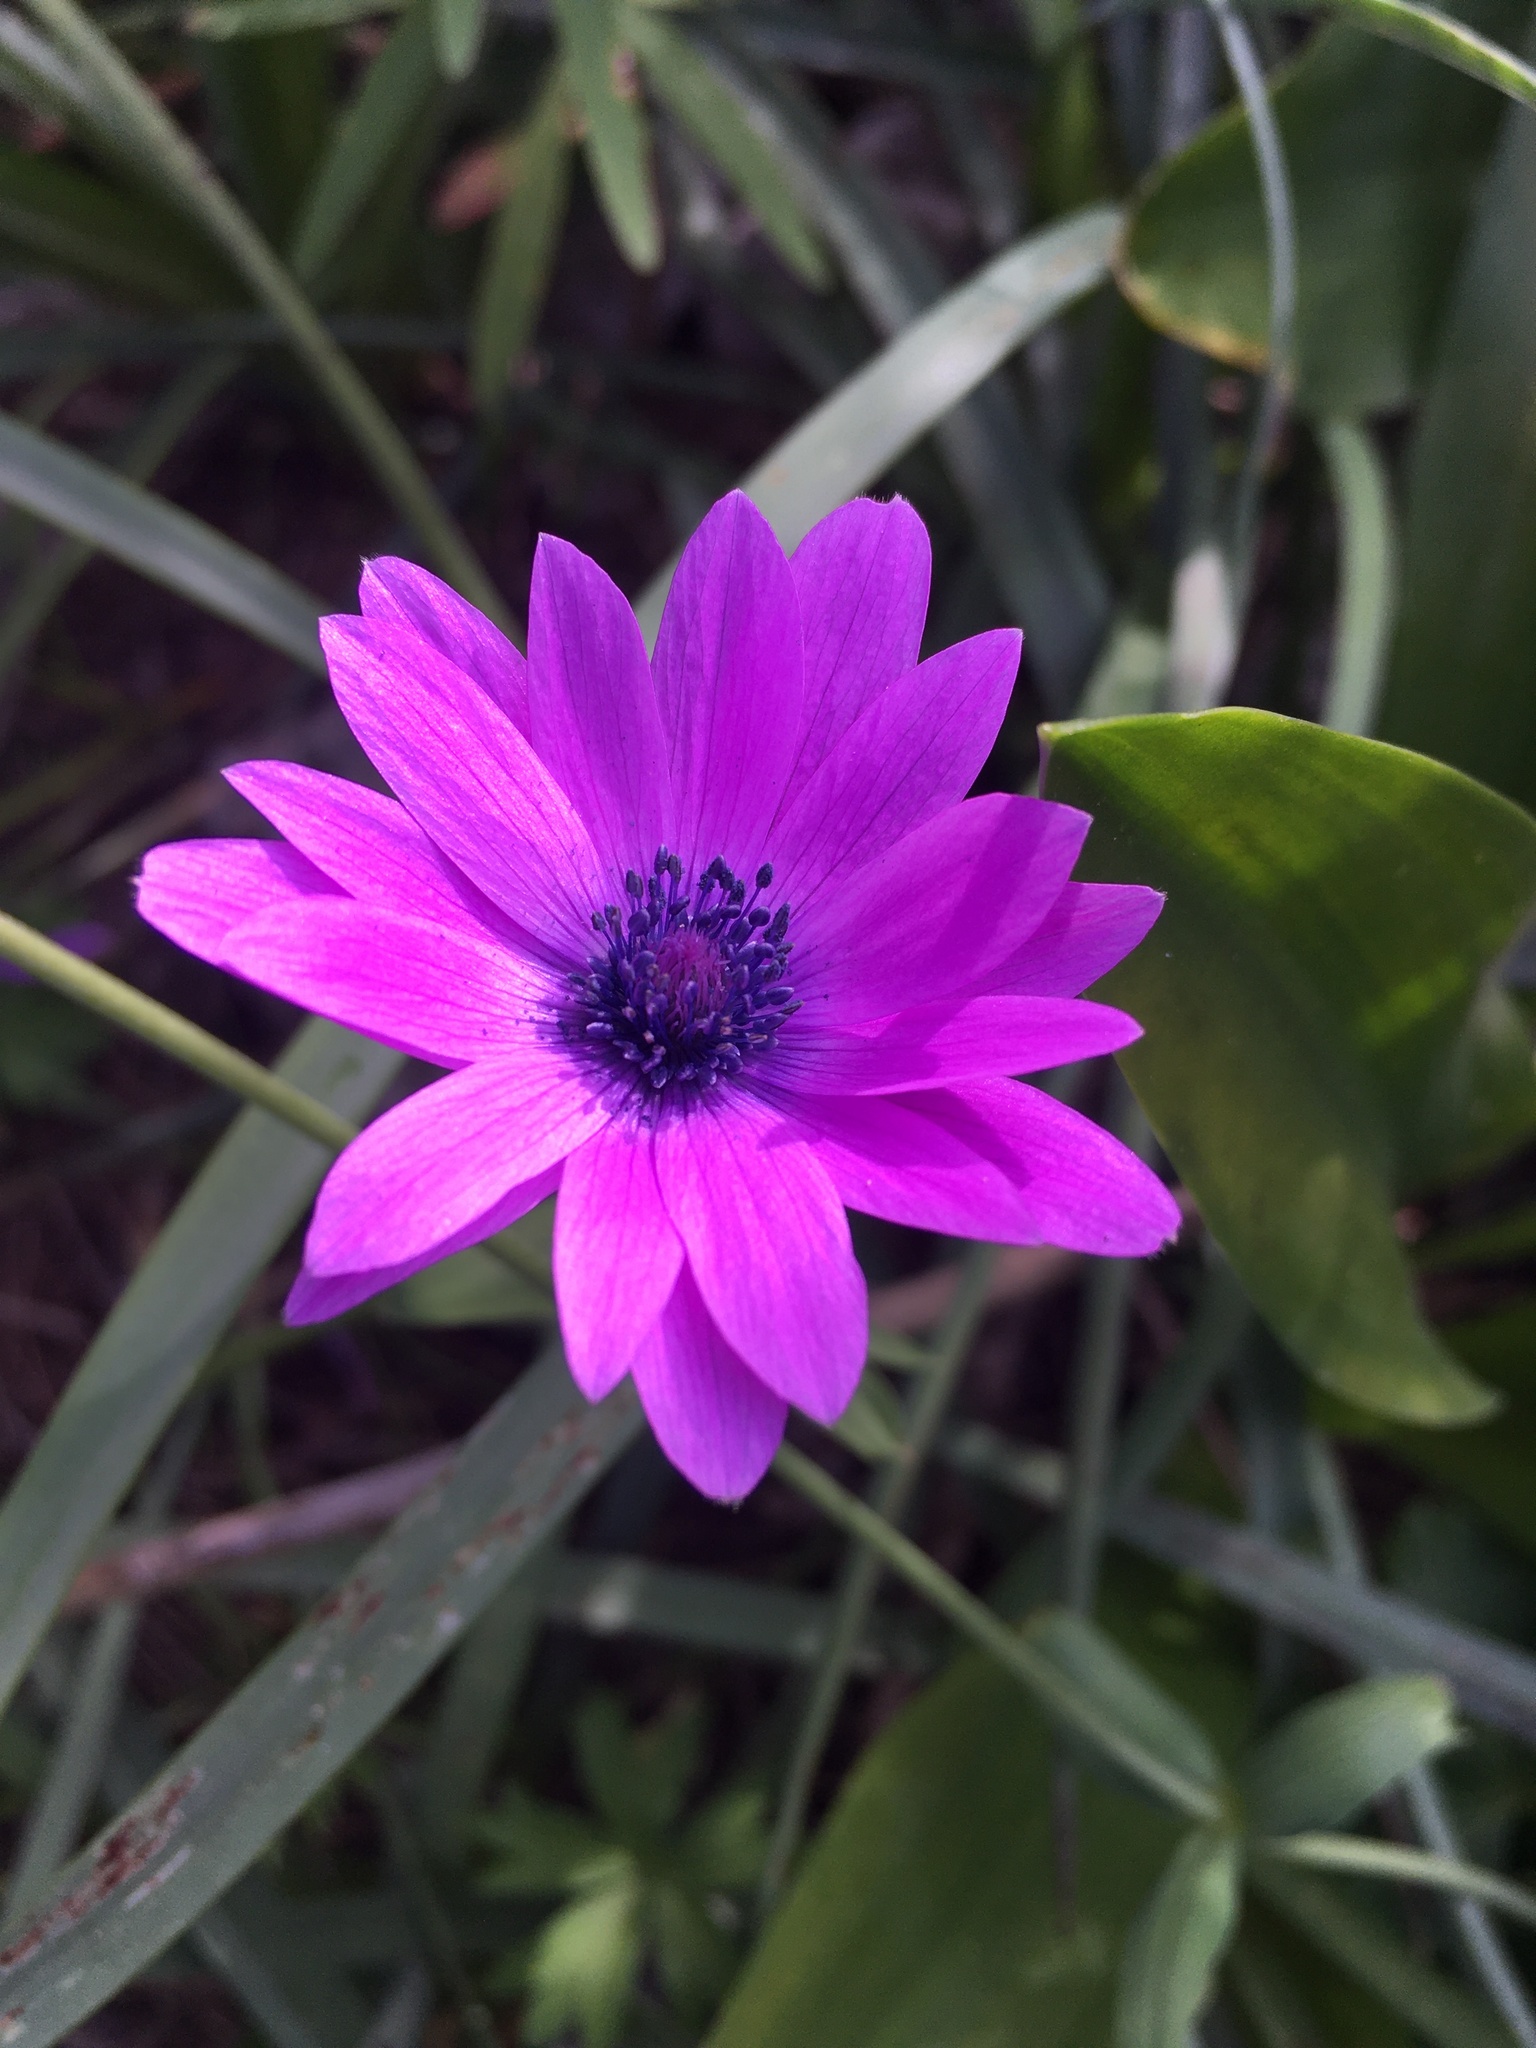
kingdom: Plantae
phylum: Tracheophyta
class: Magnoliopsida
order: Ranunculales
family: Ranunculaceae
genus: Anemone
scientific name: Anemone hortensis
